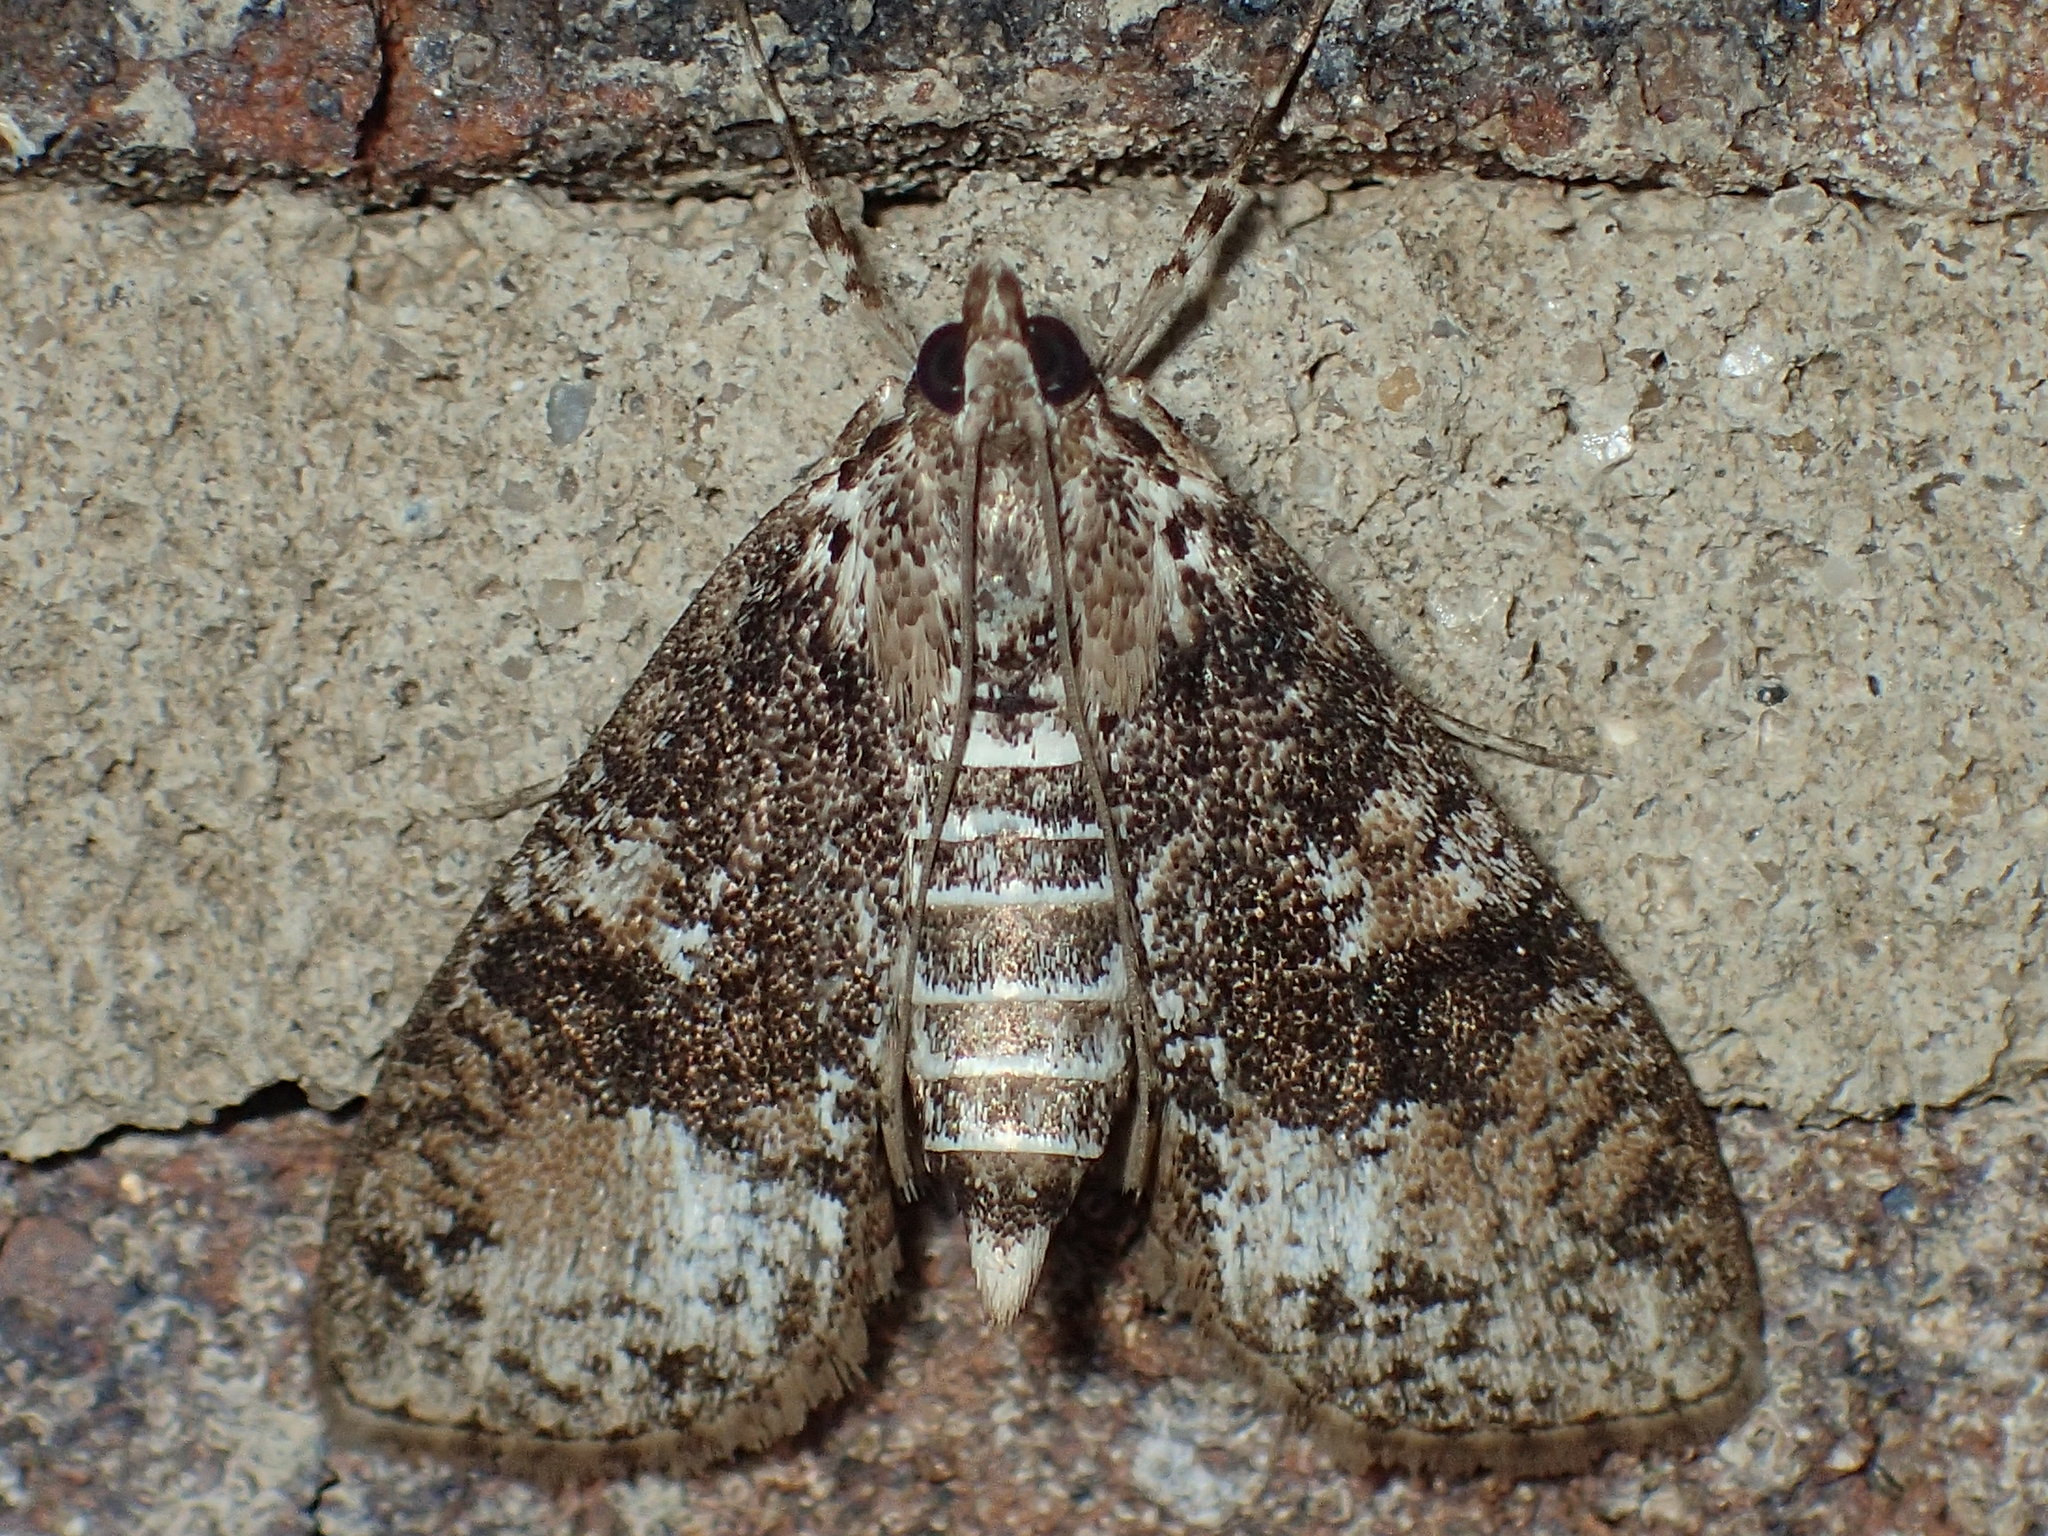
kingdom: Animalia
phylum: Arthropoda
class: Insecta
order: Lepidoptera
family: Crambidae
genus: Palpita
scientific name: Palpita magniferalis
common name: Splendid palpita moth
